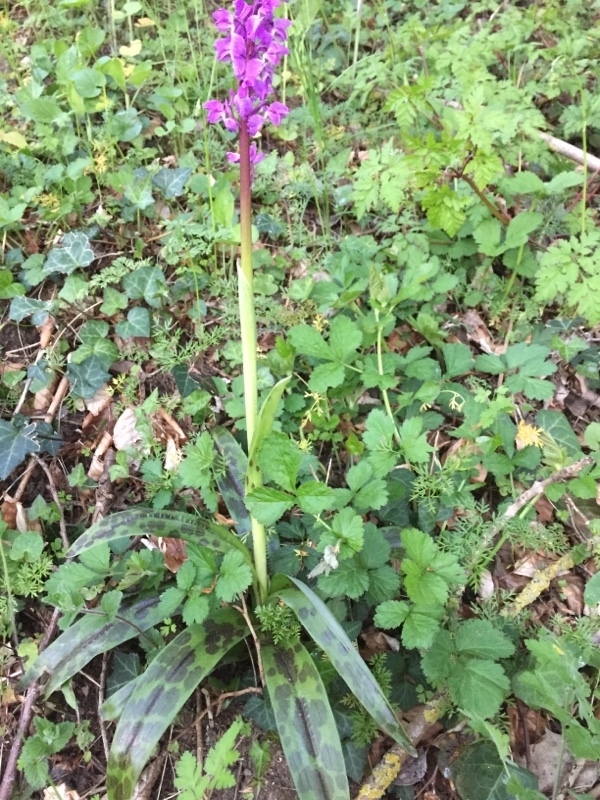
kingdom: Plantae
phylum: Tracheophyta
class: Liliopsida
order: Asparagales
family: Orchidaceae
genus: Orchis
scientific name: Orchis mascula
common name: Early-purple orchid
